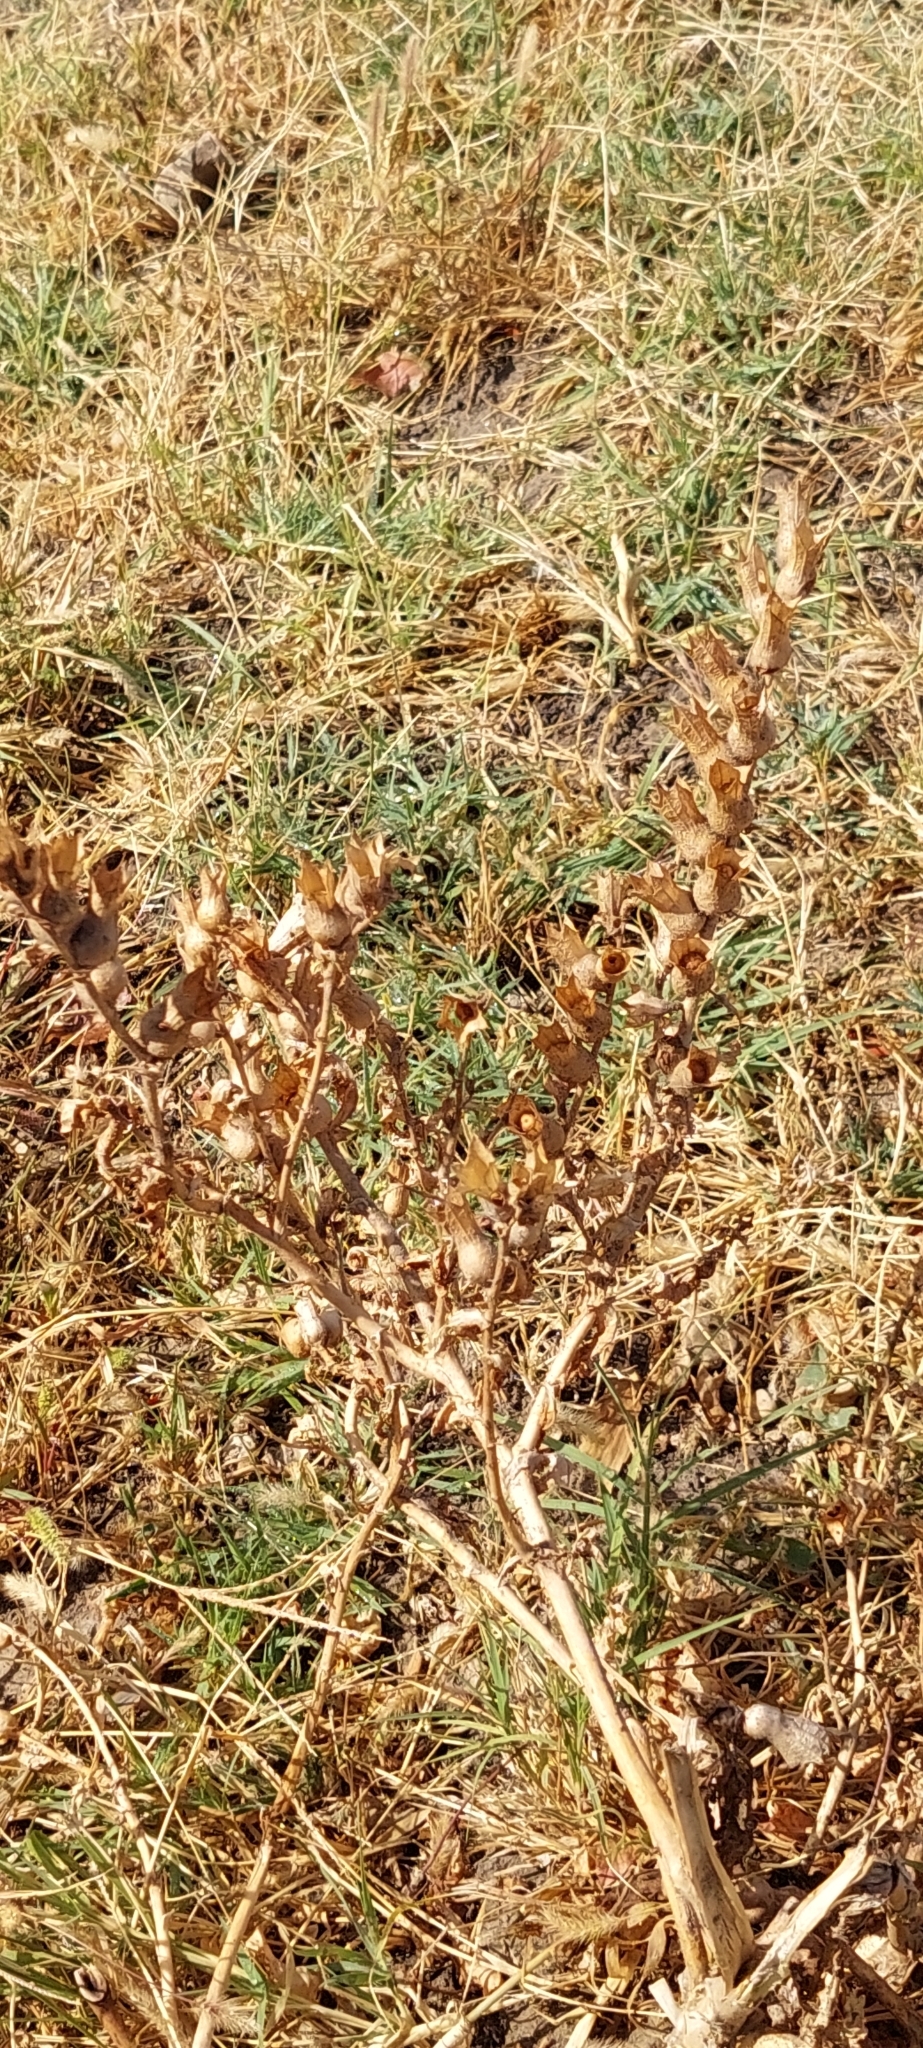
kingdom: Plantae
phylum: Tracheophyta
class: Magnoliopsida
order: Solanales
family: Solanaceae
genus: Hyoscyamus
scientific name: Hyoscyamus niger
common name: Henbane
